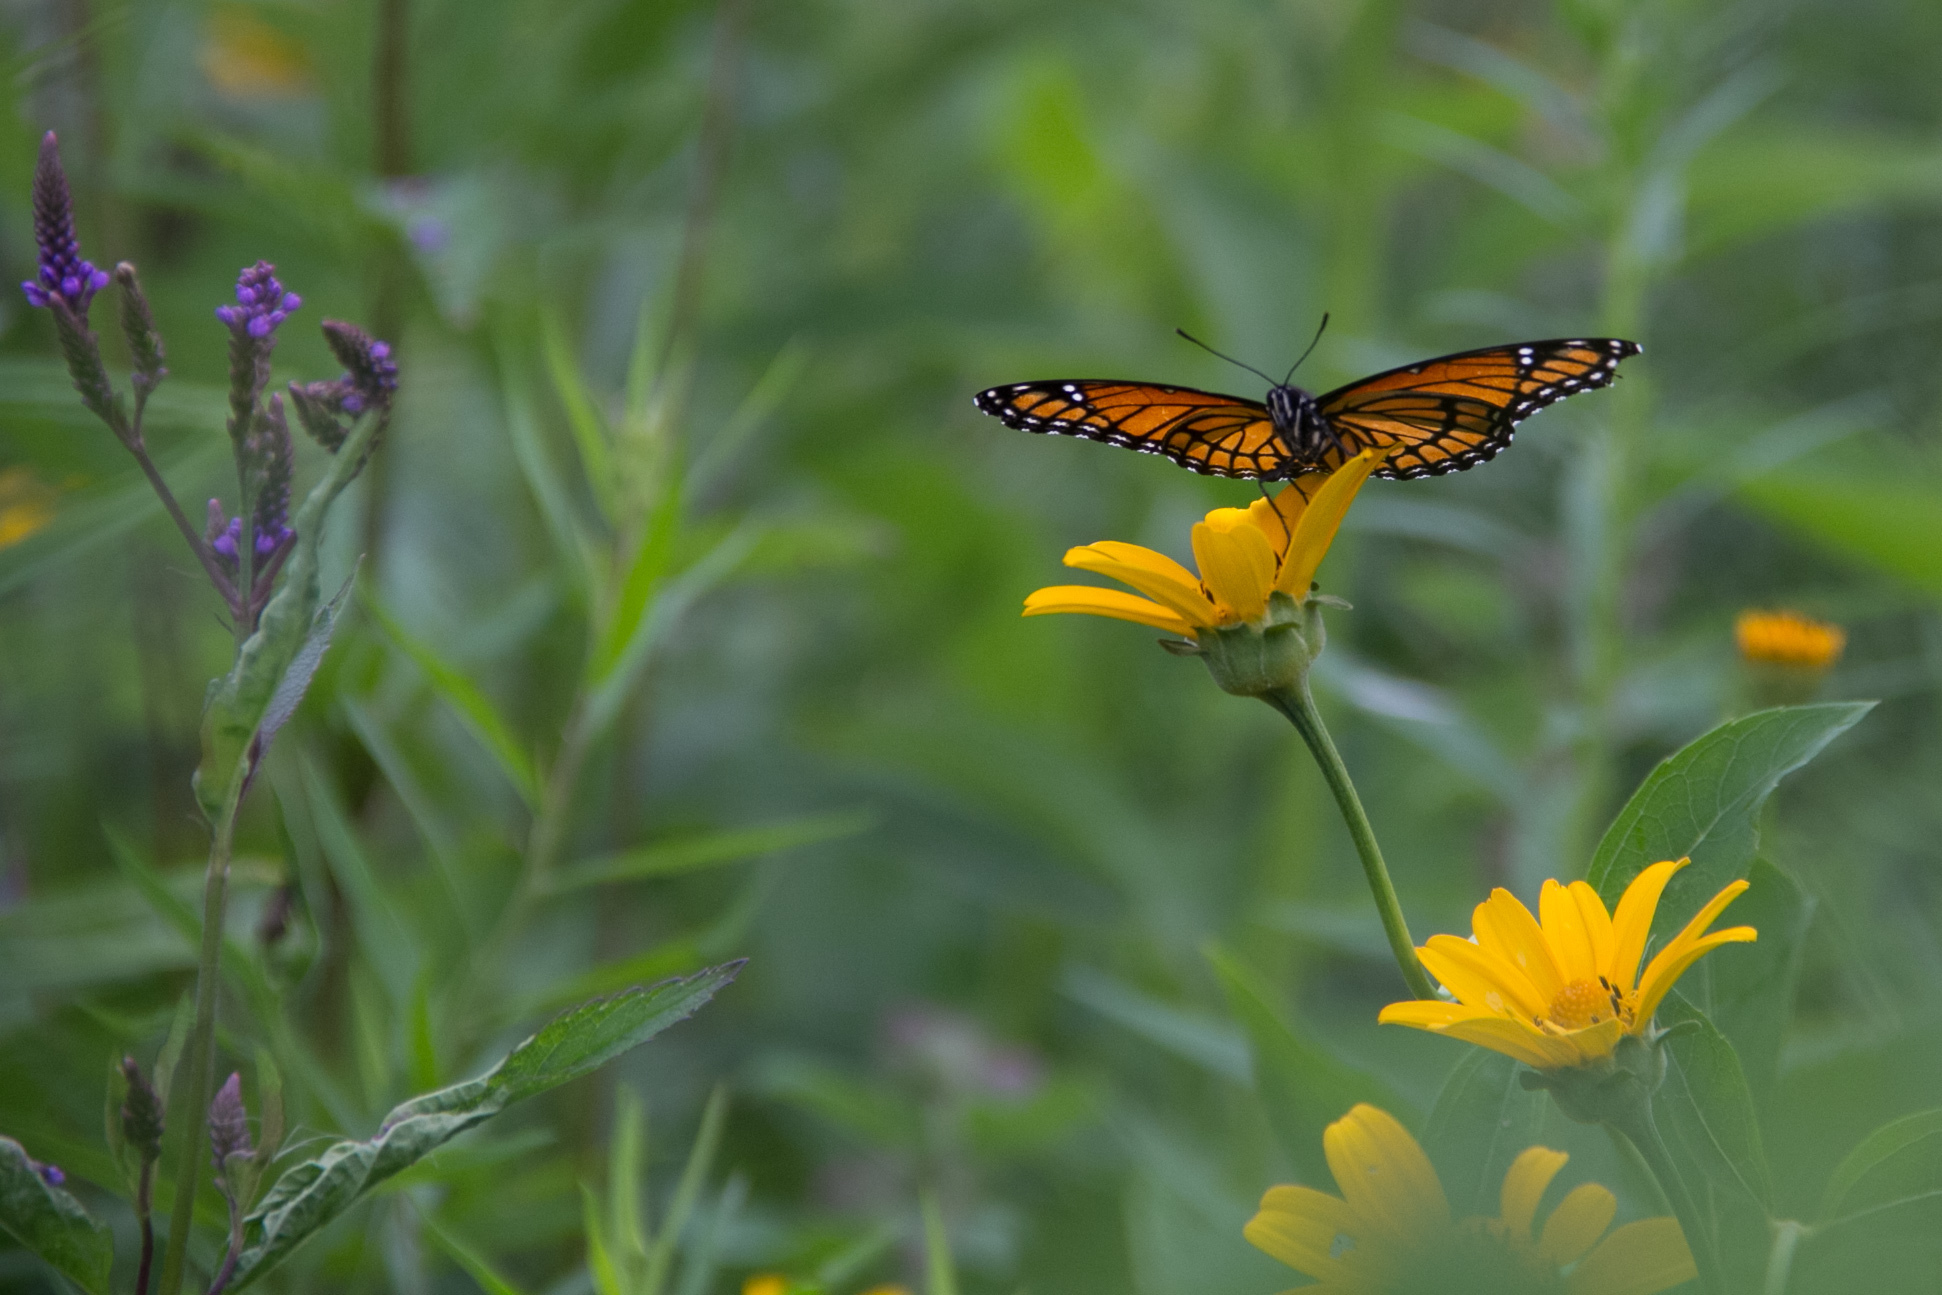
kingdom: Animalia
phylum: Arthropoda
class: Insecta
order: Lepidoptera
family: Nymphalidae
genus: Limenitis
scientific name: Limenitis archippus
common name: Viceroy
